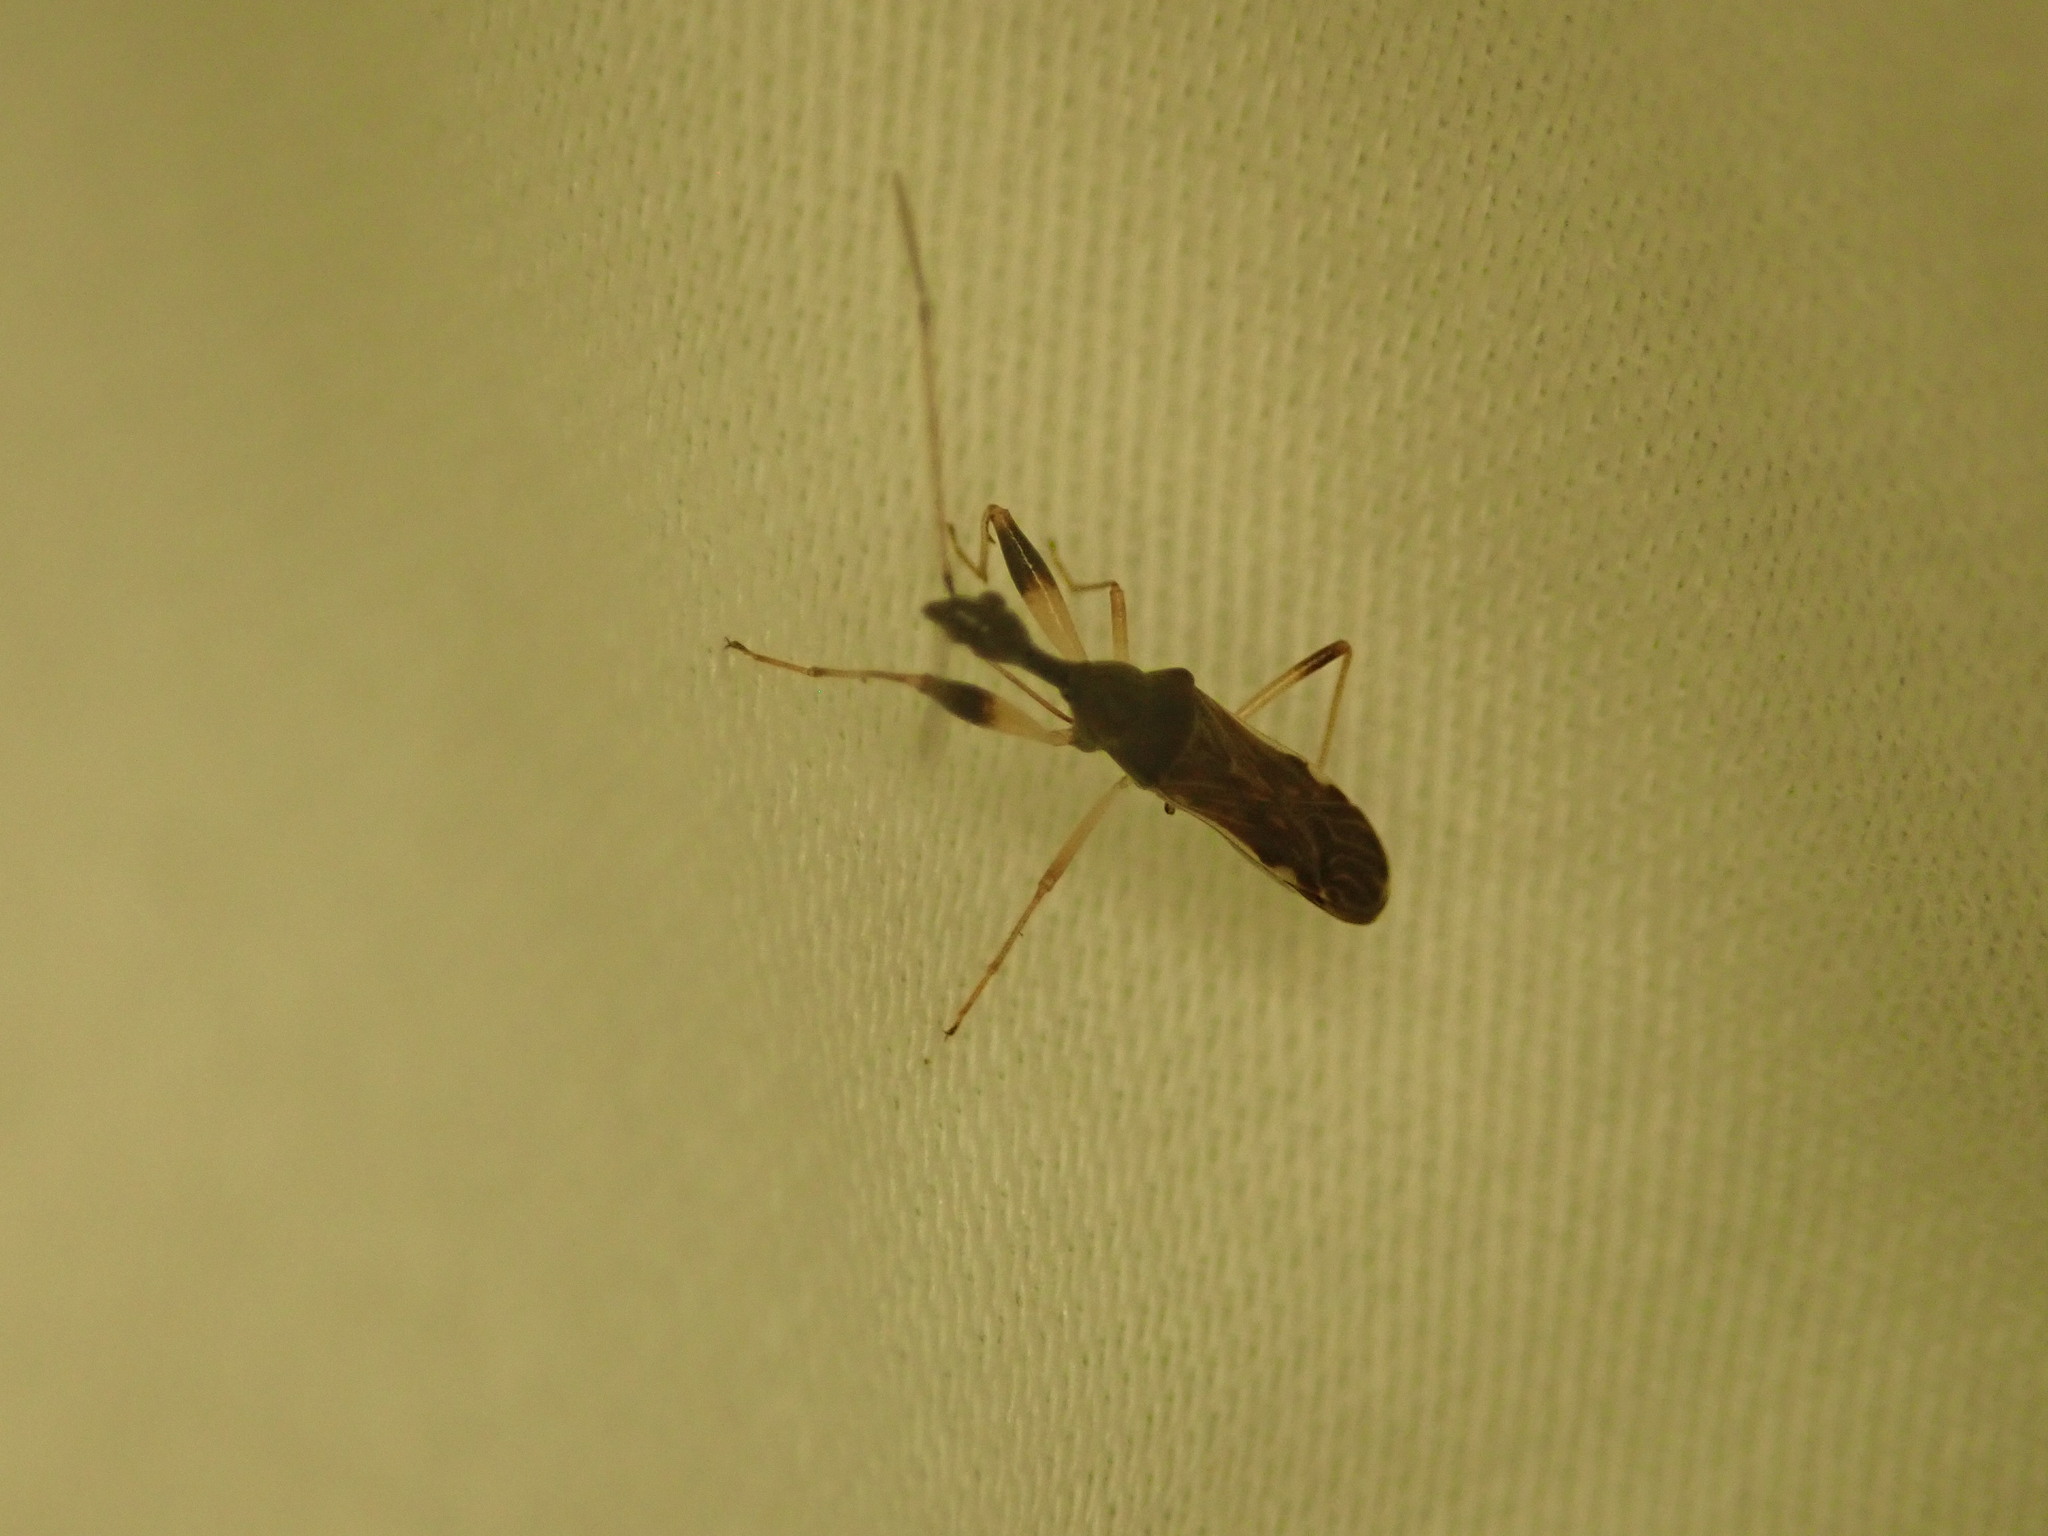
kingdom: Animalia
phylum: Arthropoda
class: Insecta
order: Hemiptera
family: Rhyparochromidae
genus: Myodocha
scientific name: Myodocha serripes
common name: Long-necked seed bug
